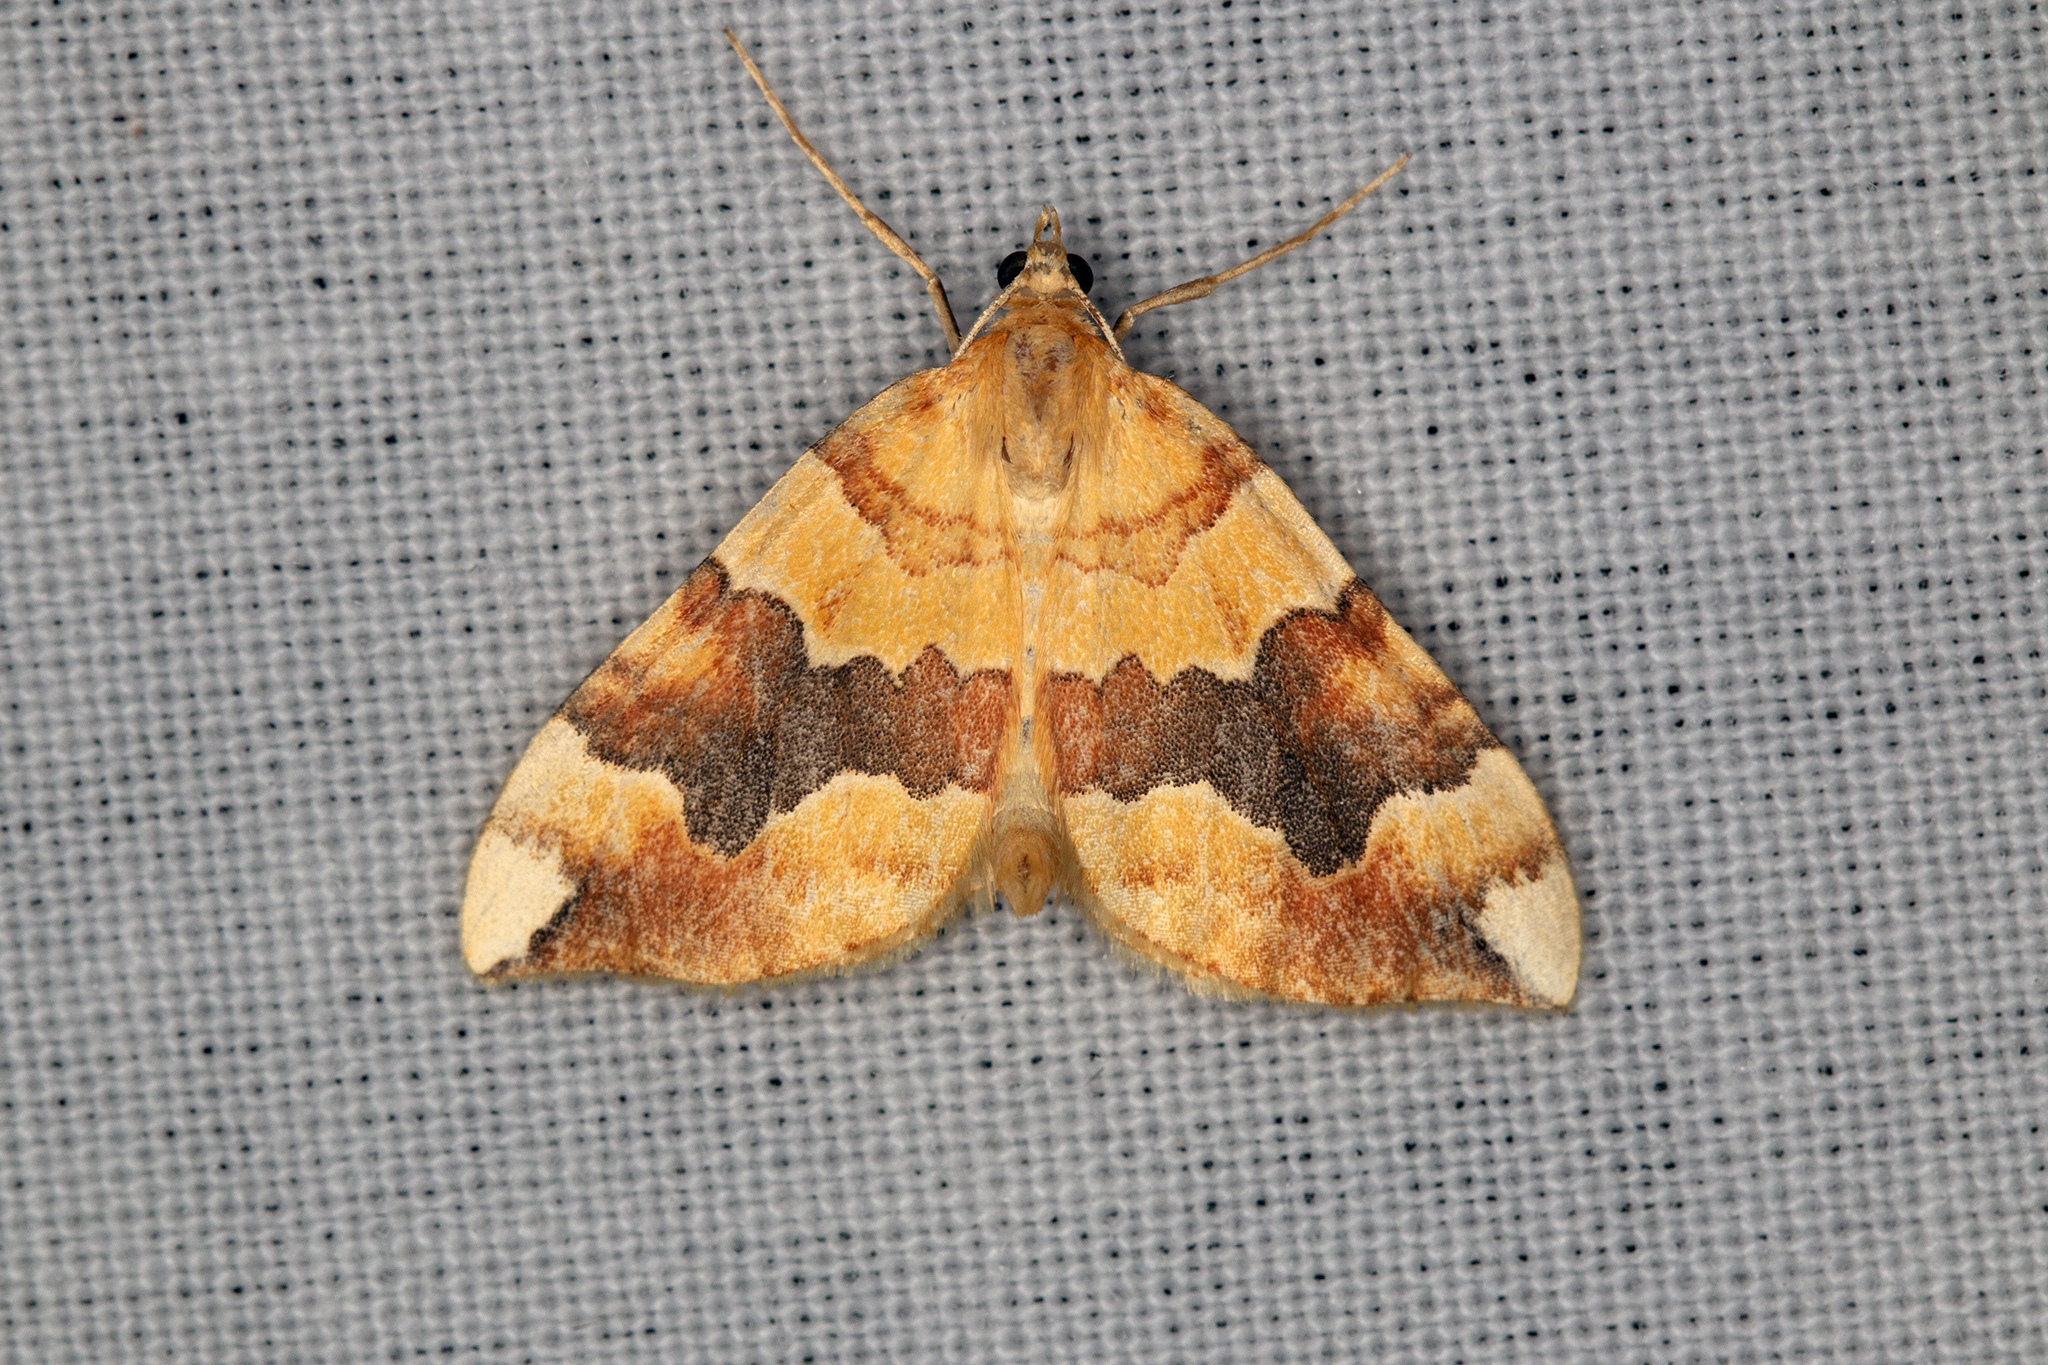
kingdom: Animalia
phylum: Arthropoda
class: Insecta
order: Lepidoptera
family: Geometridae
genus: Cidaria
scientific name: Cidaria fulvata
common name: Barred yellow
